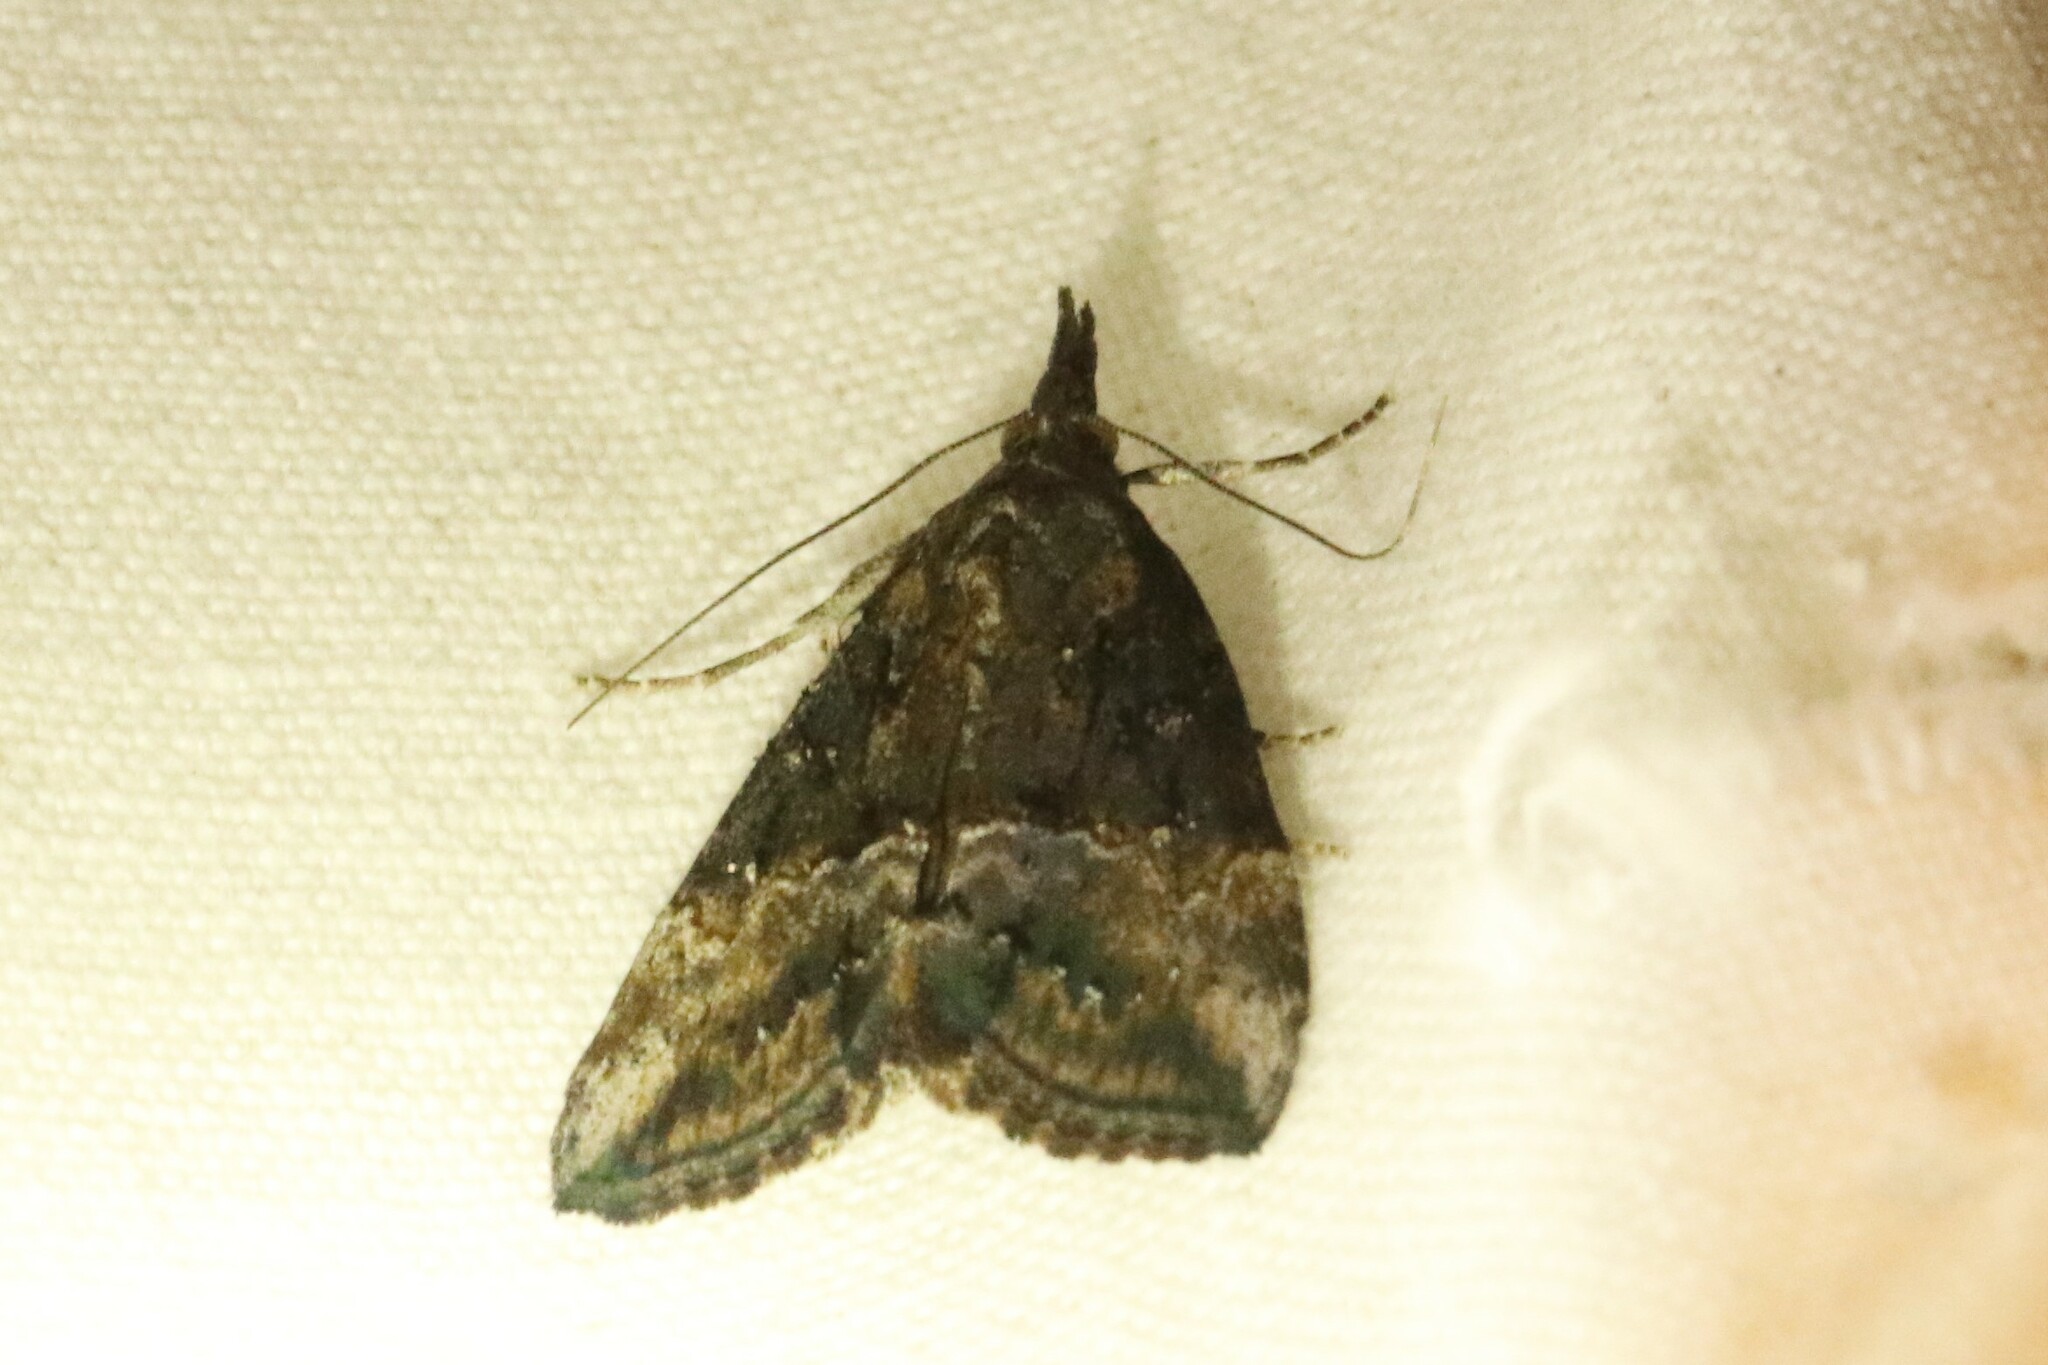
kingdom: Animalia
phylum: Arthropoda
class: Insecta
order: Lepidoptera
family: Erebidae
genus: Hypena
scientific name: Hypena scabra
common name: Green cloverworm
